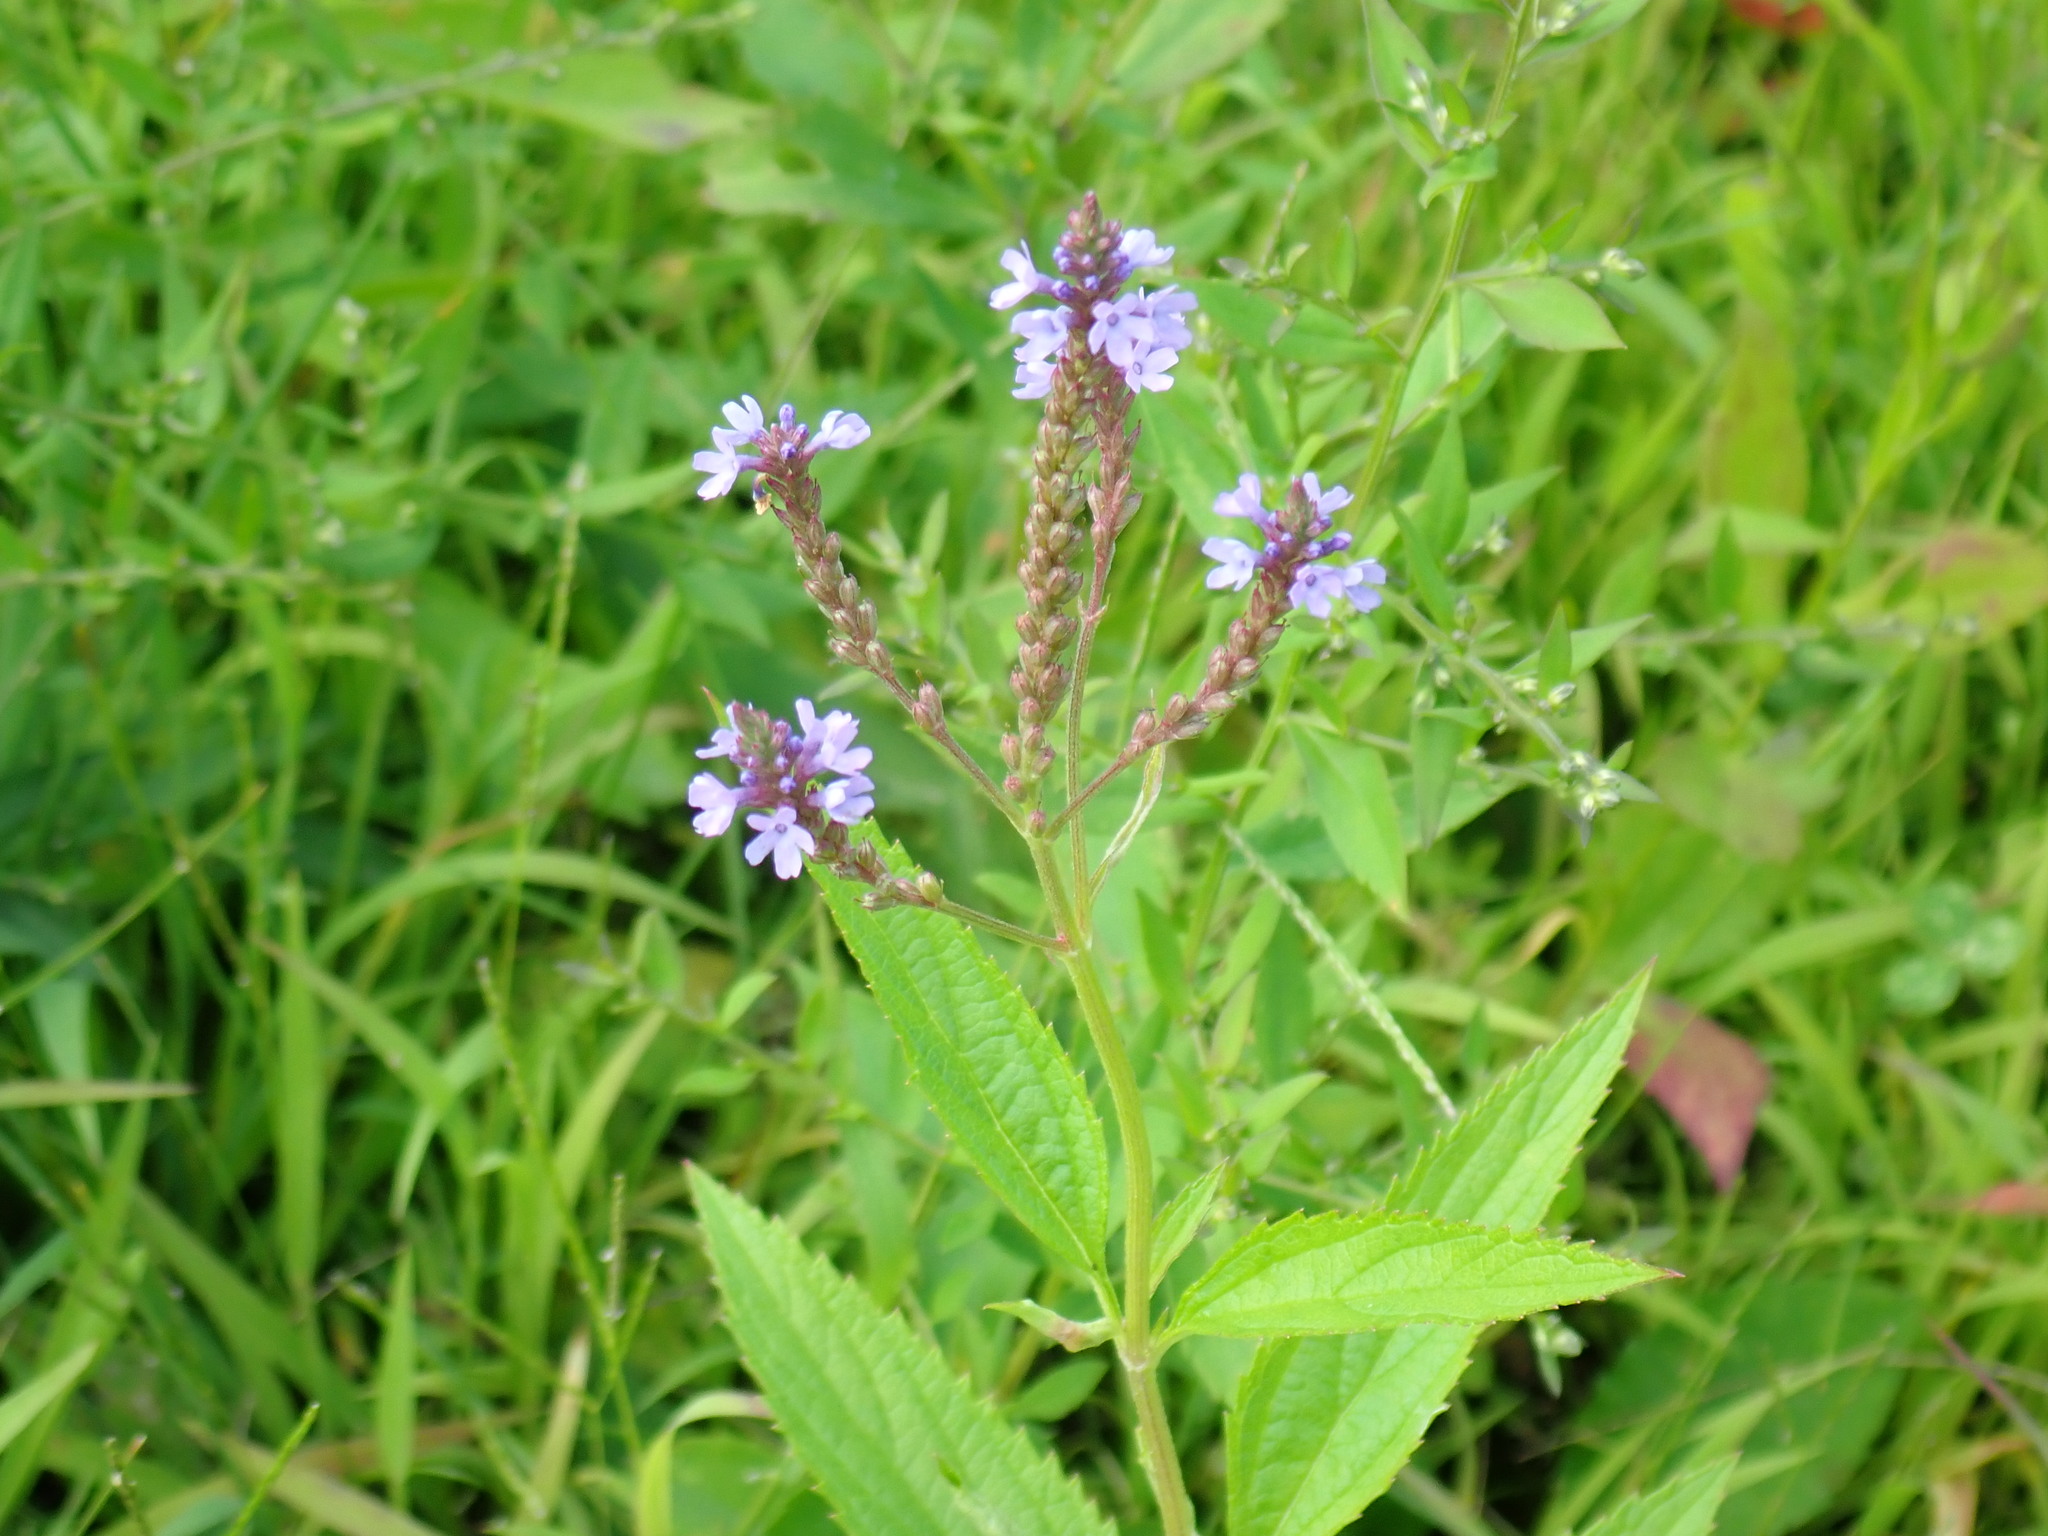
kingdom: Plantae
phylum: Tracheophyta
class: Magnoliopsida
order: Lamiales
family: Verbenaceae
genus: Verbena
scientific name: Verbena hastata
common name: American blue vervain
